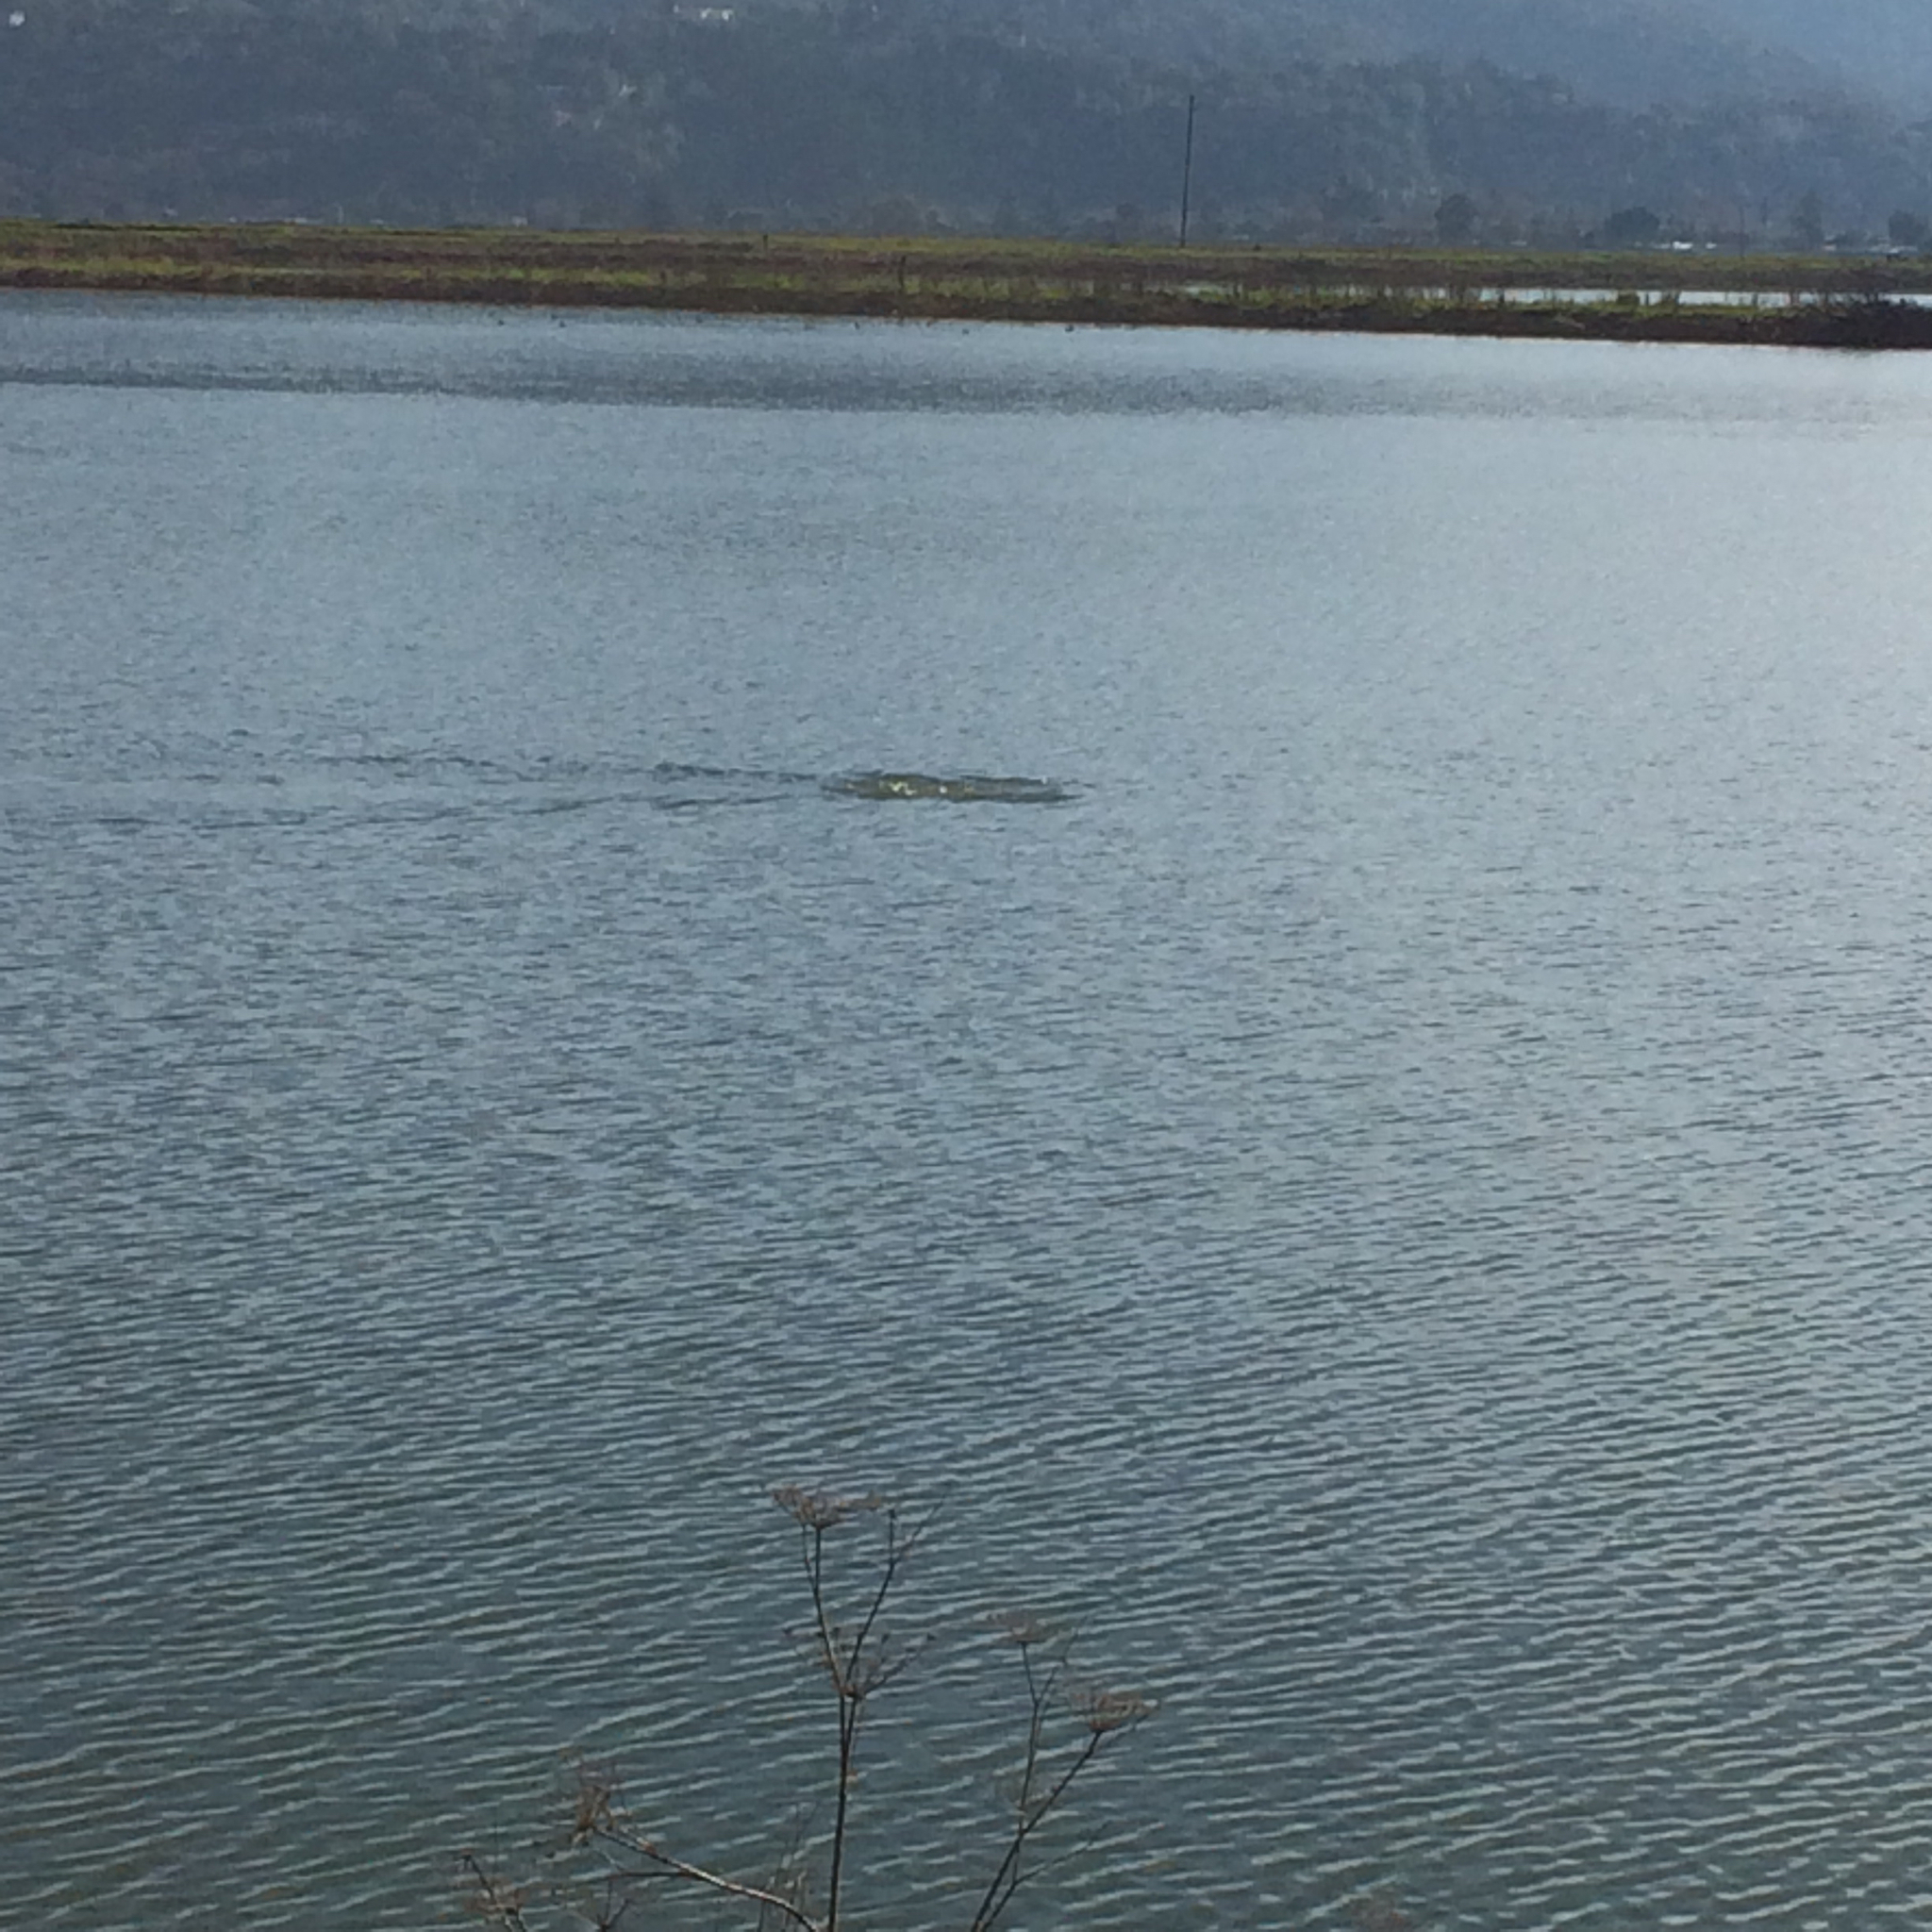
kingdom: Animalia
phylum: Chordata
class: Mammalia
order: Carnivora
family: Mustelidae
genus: Lontra
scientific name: Lontra canadensis
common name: North american river otter
